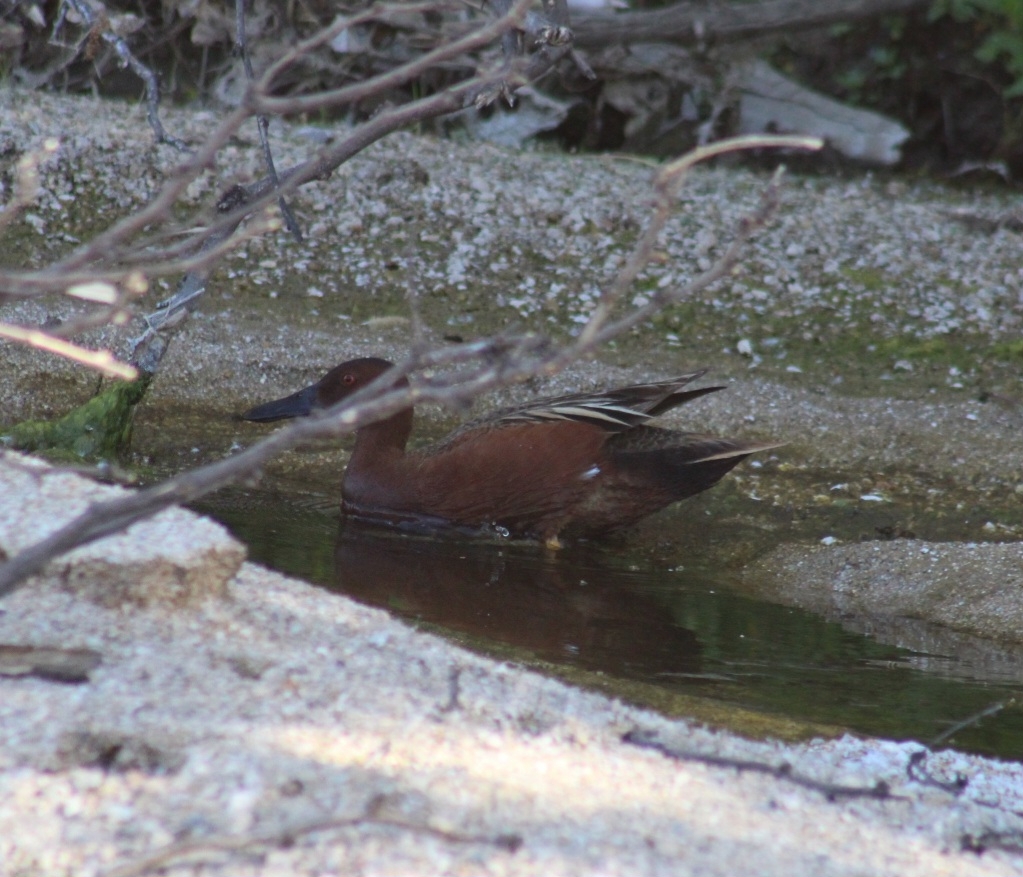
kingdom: Animalia
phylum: Chordata
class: Aves
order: Anseriformes
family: Anatidae
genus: Spatula
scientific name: Spatula cyanoptera
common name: Cinnamon teal
